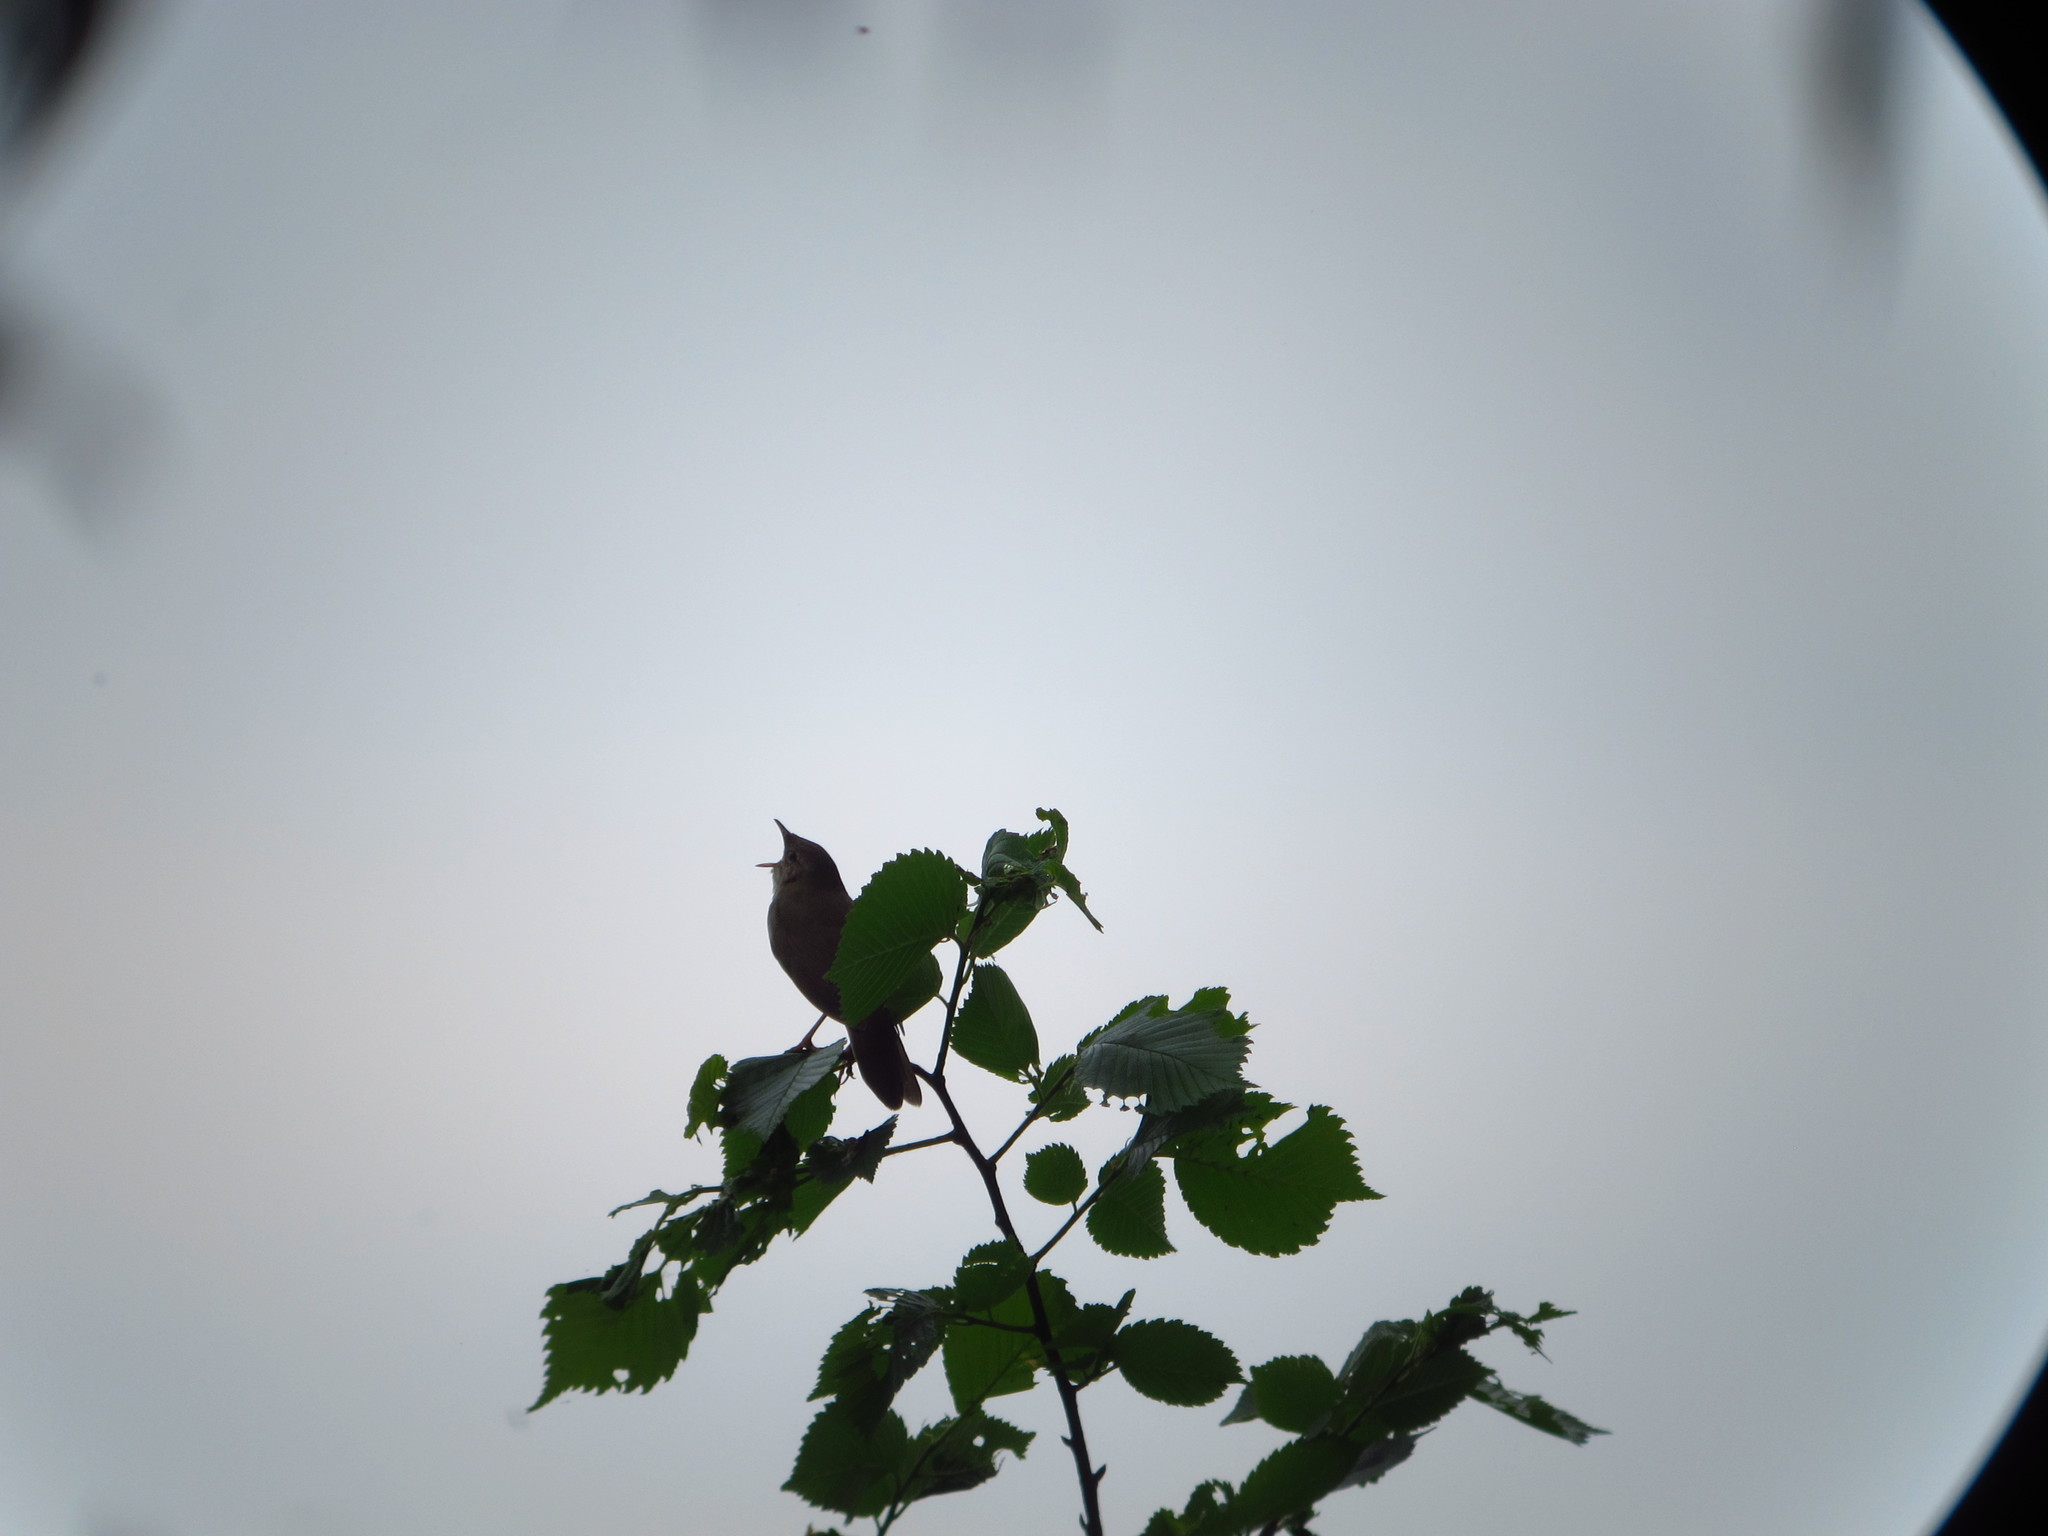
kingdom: Animalia
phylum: Chordata
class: Aves
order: Passeriformes
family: Locustellidae
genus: Locustella
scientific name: Locustella fluviatilis
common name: River warbler
